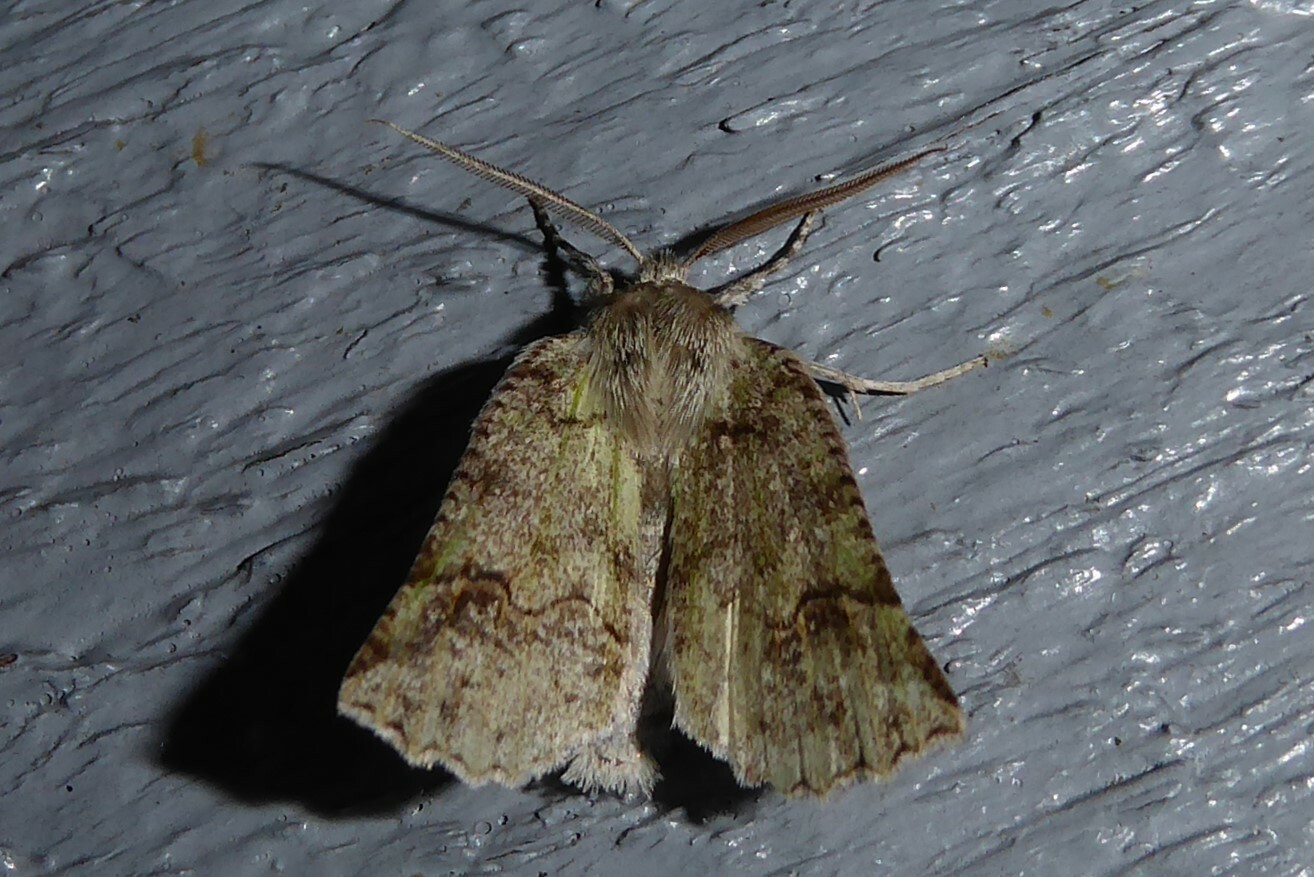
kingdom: Animalia
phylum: Arthropoda
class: Insecta
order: Lepidoptera
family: Geometridae
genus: Declana
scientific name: Declana floccosa
